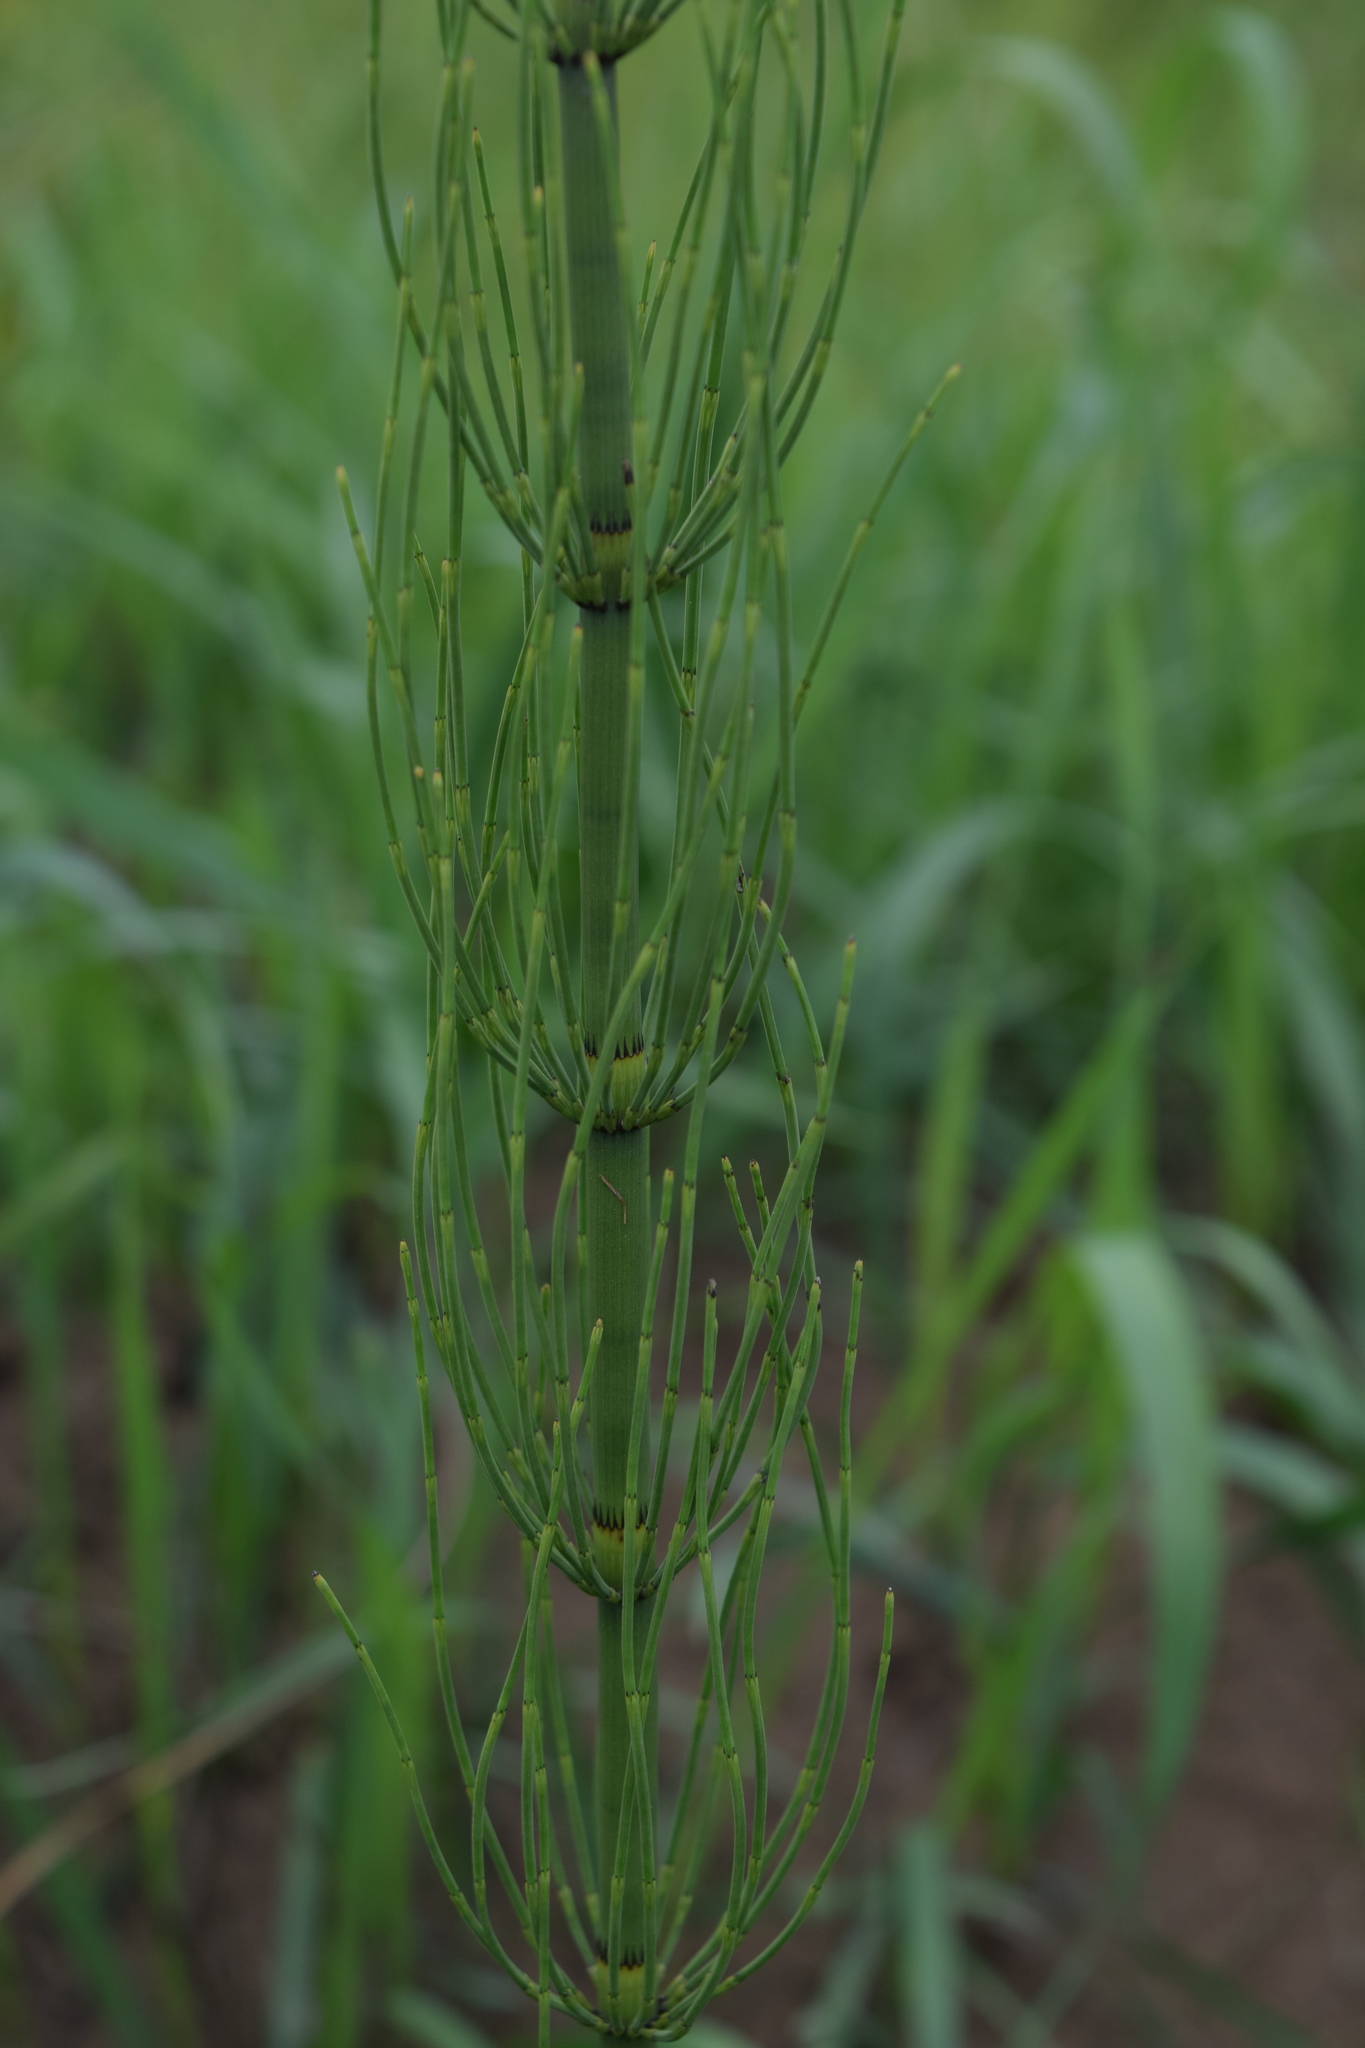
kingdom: Plantae
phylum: Tracheophyta
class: Polypodiopsida
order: Equisetales
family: Equisetaceae
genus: Equisetum
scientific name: Equisetum fluviatile
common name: Water horsetail
